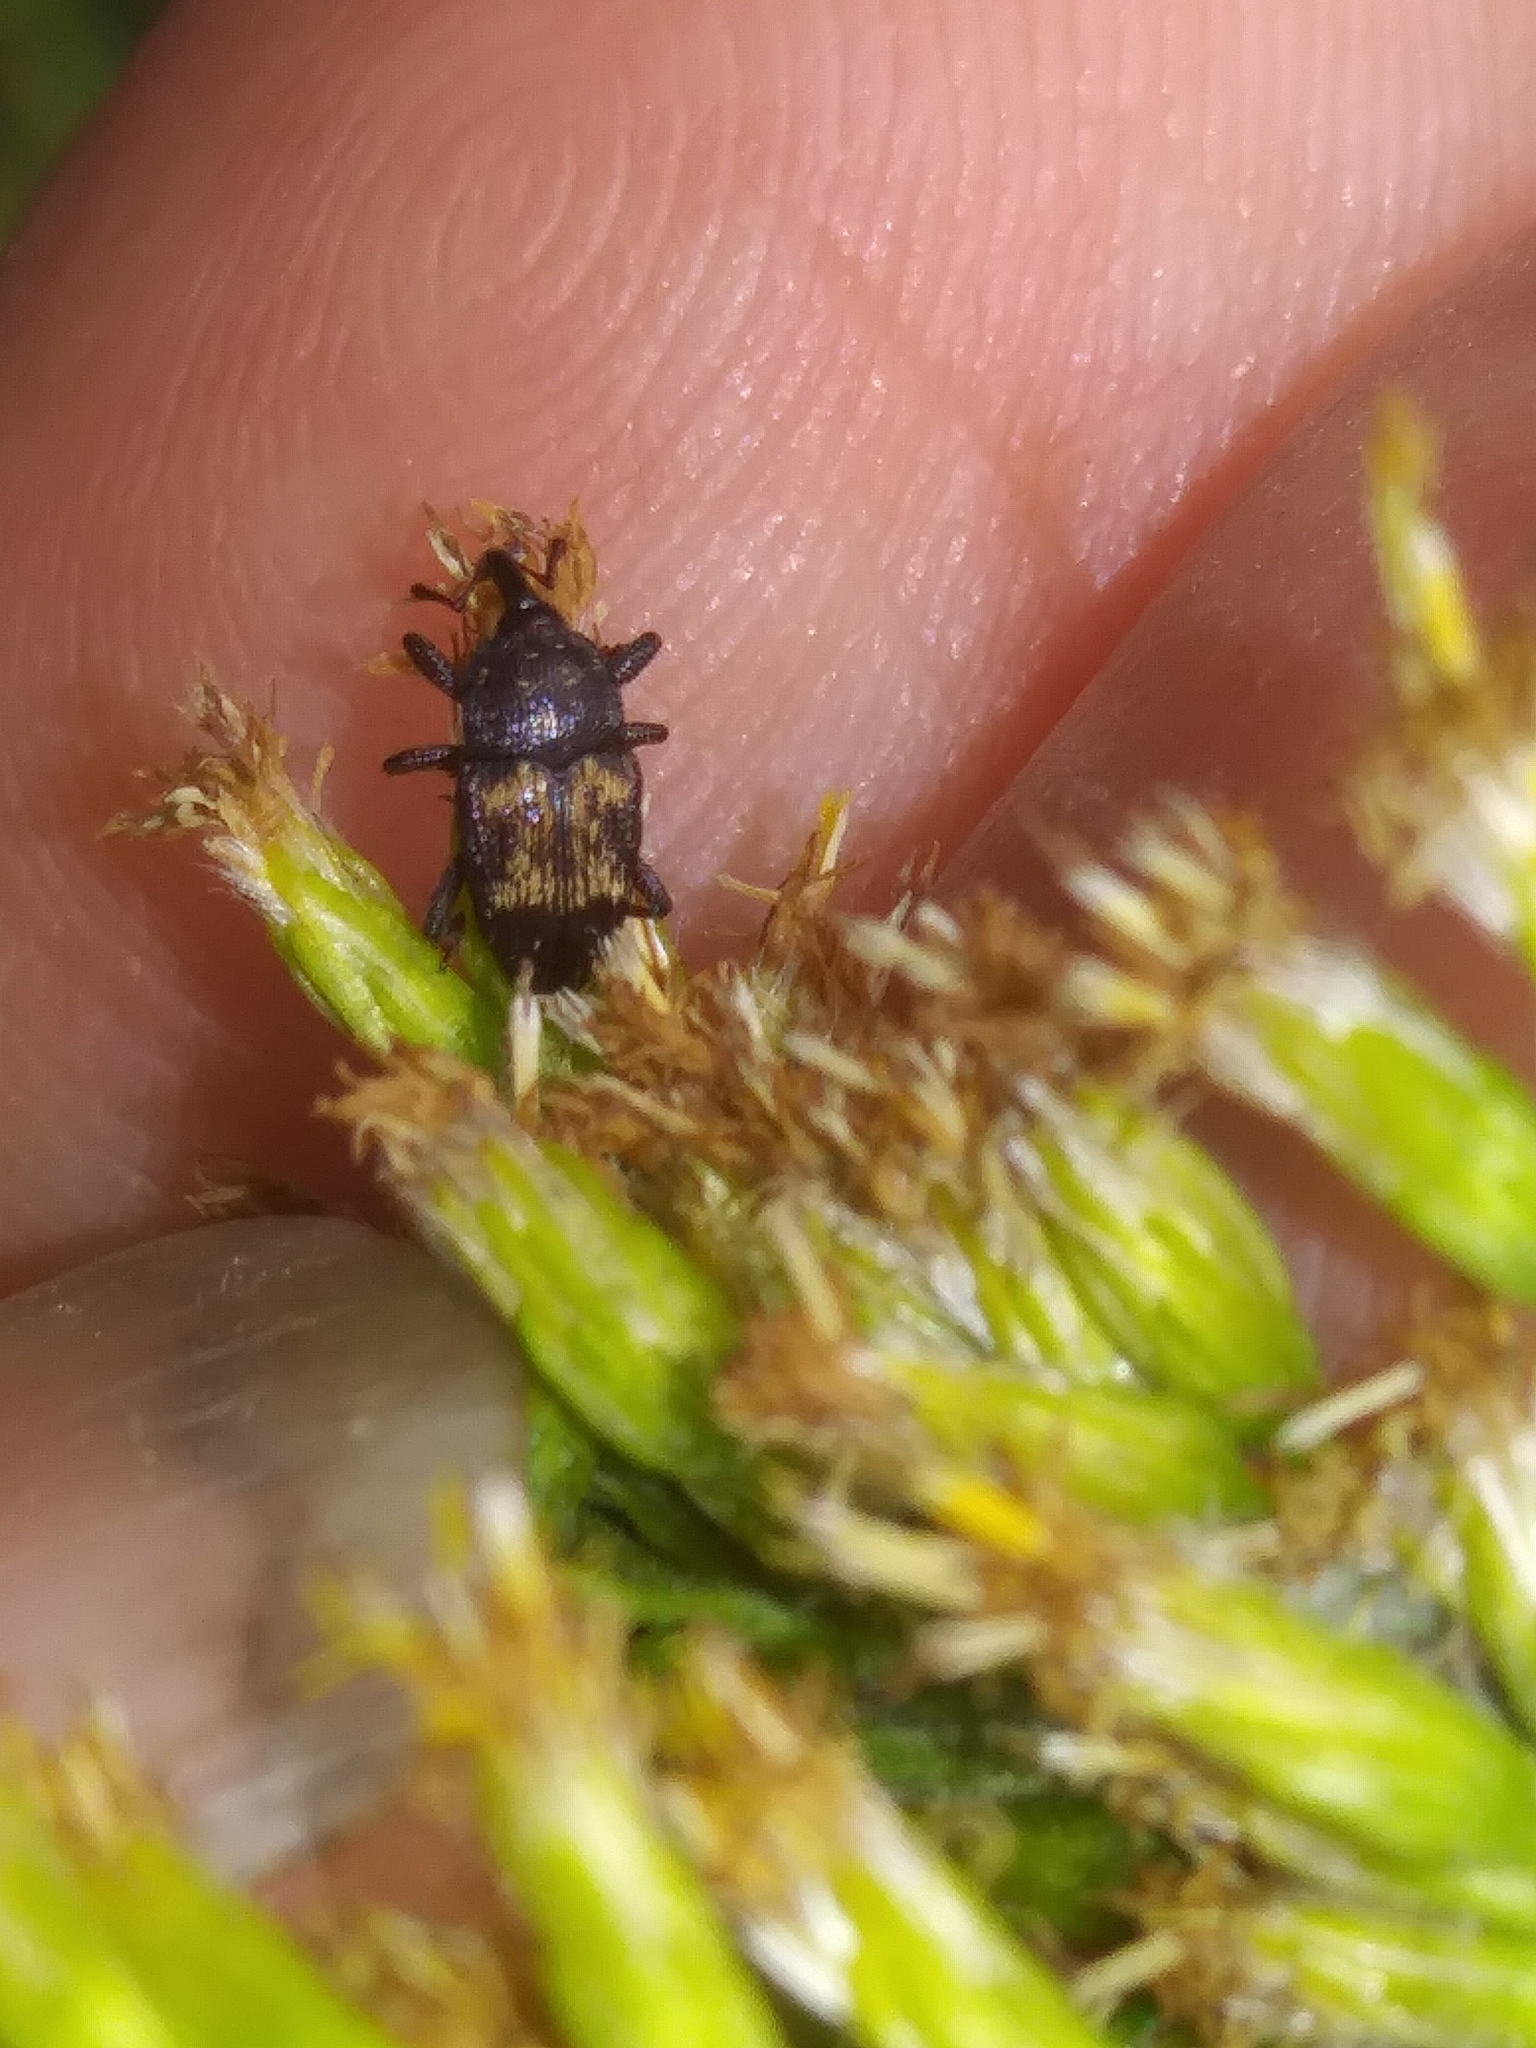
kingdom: Animalia
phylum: Arthropoda
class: Insecta
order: Coleoptera
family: Curculionidae
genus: Glyptobaris
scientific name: Glyptobaris lecontei
